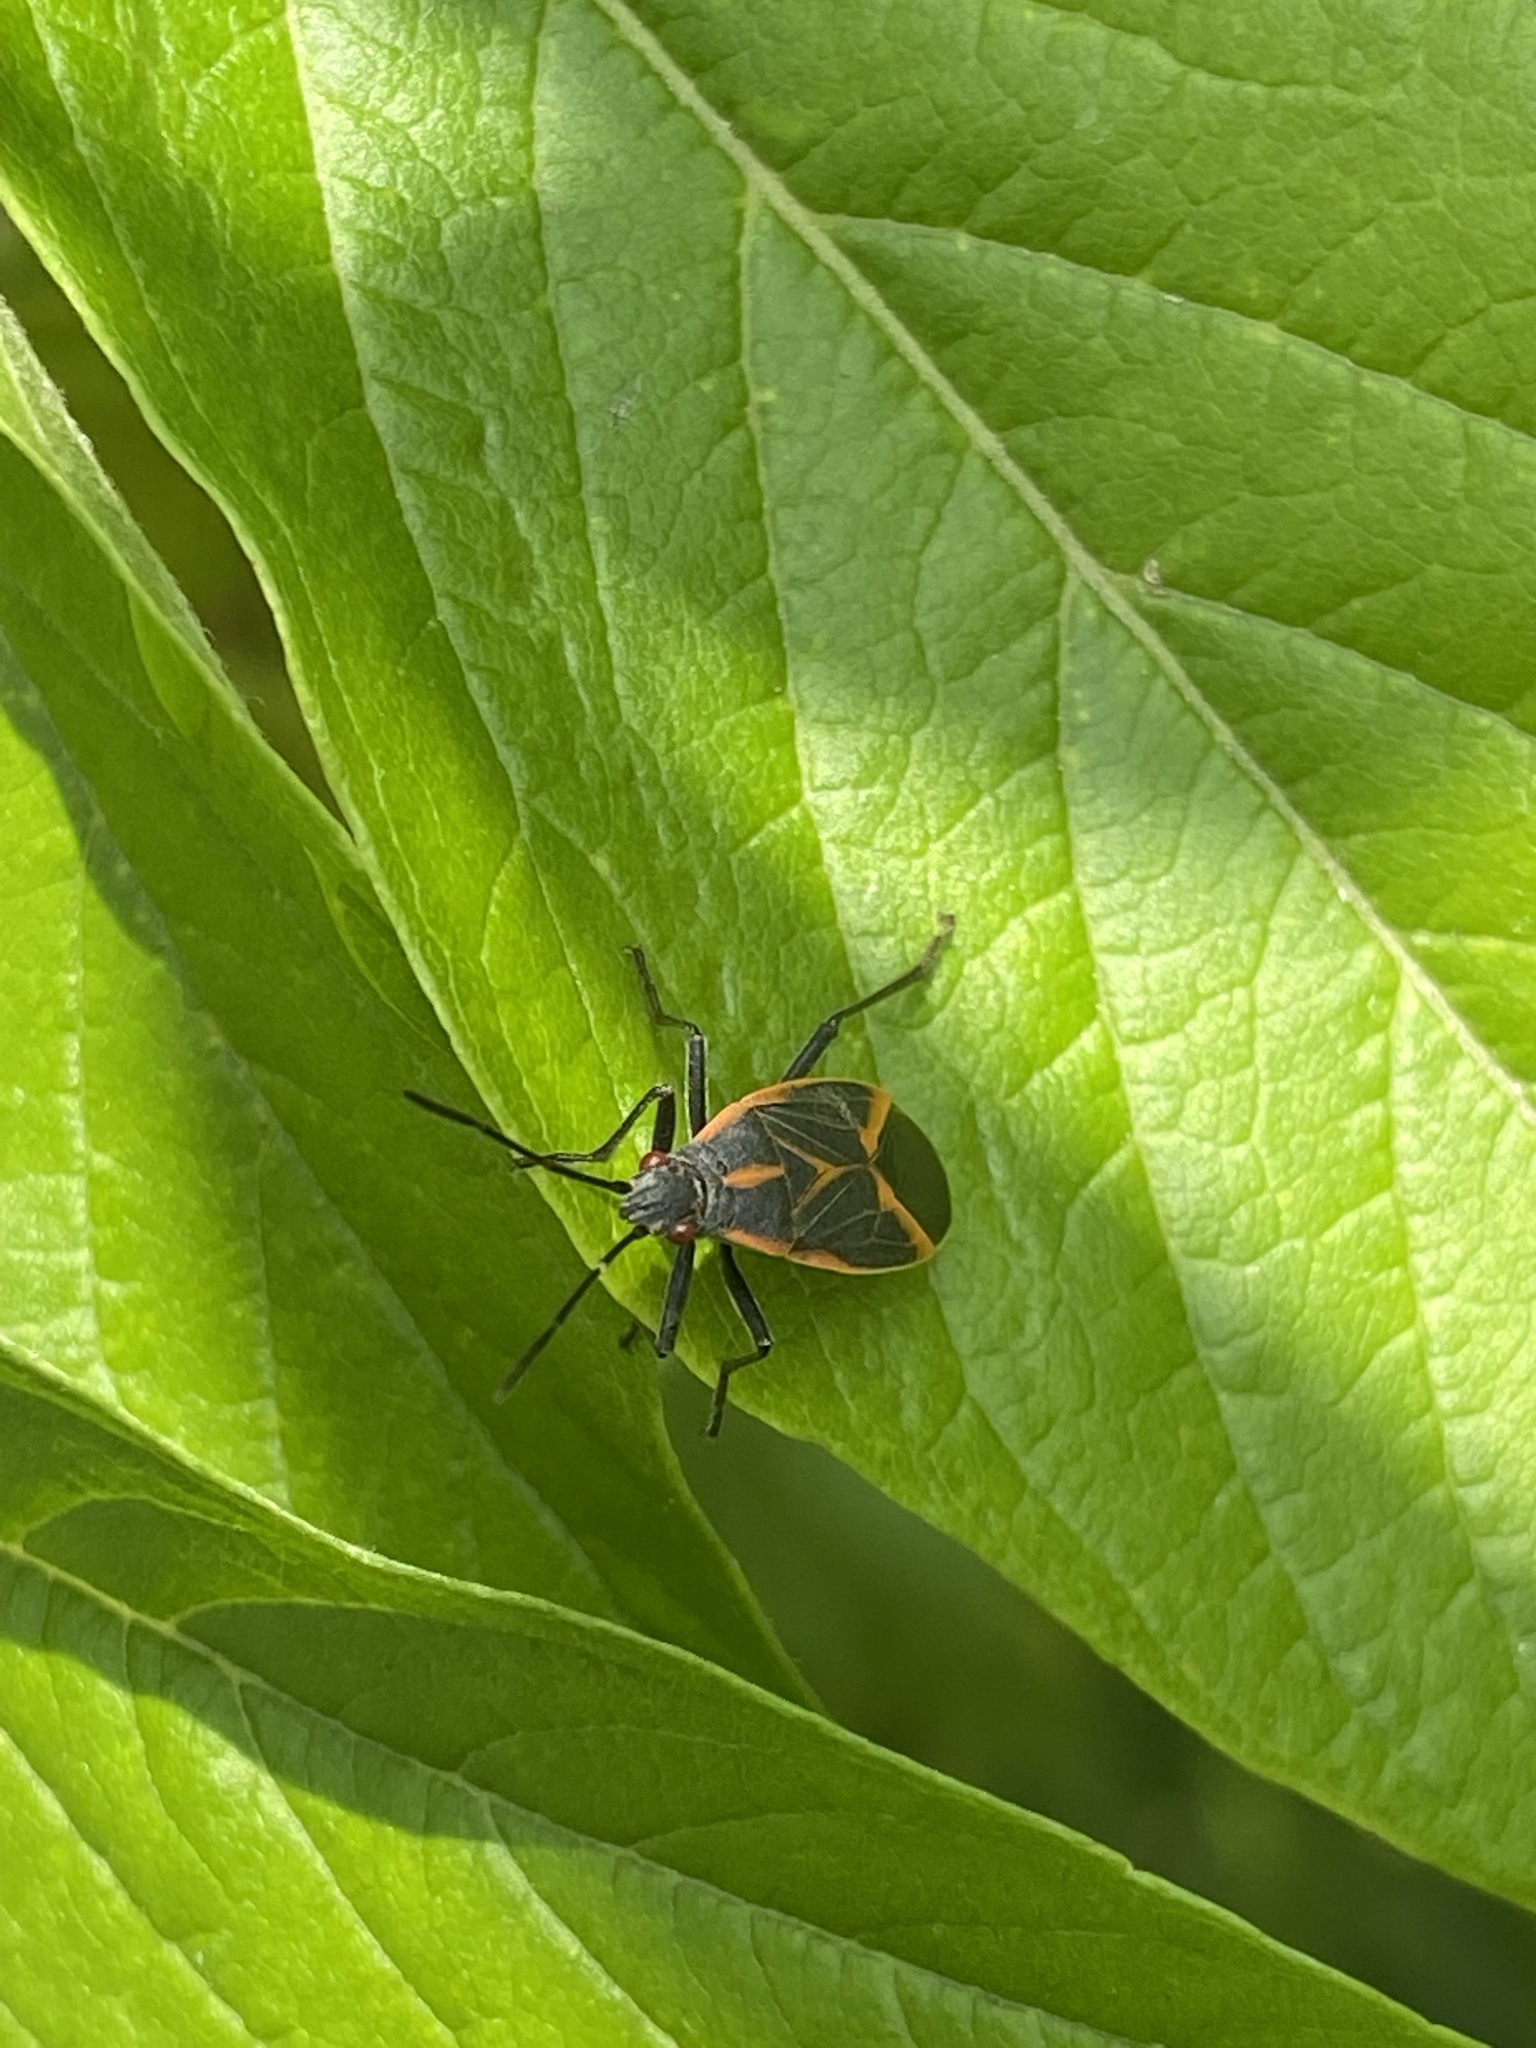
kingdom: Animalia
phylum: Arthropoda
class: Insecta
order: Hemiptera
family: Rhopalidae
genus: Boisea
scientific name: Boisea trivittata
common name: Boxelder bug
